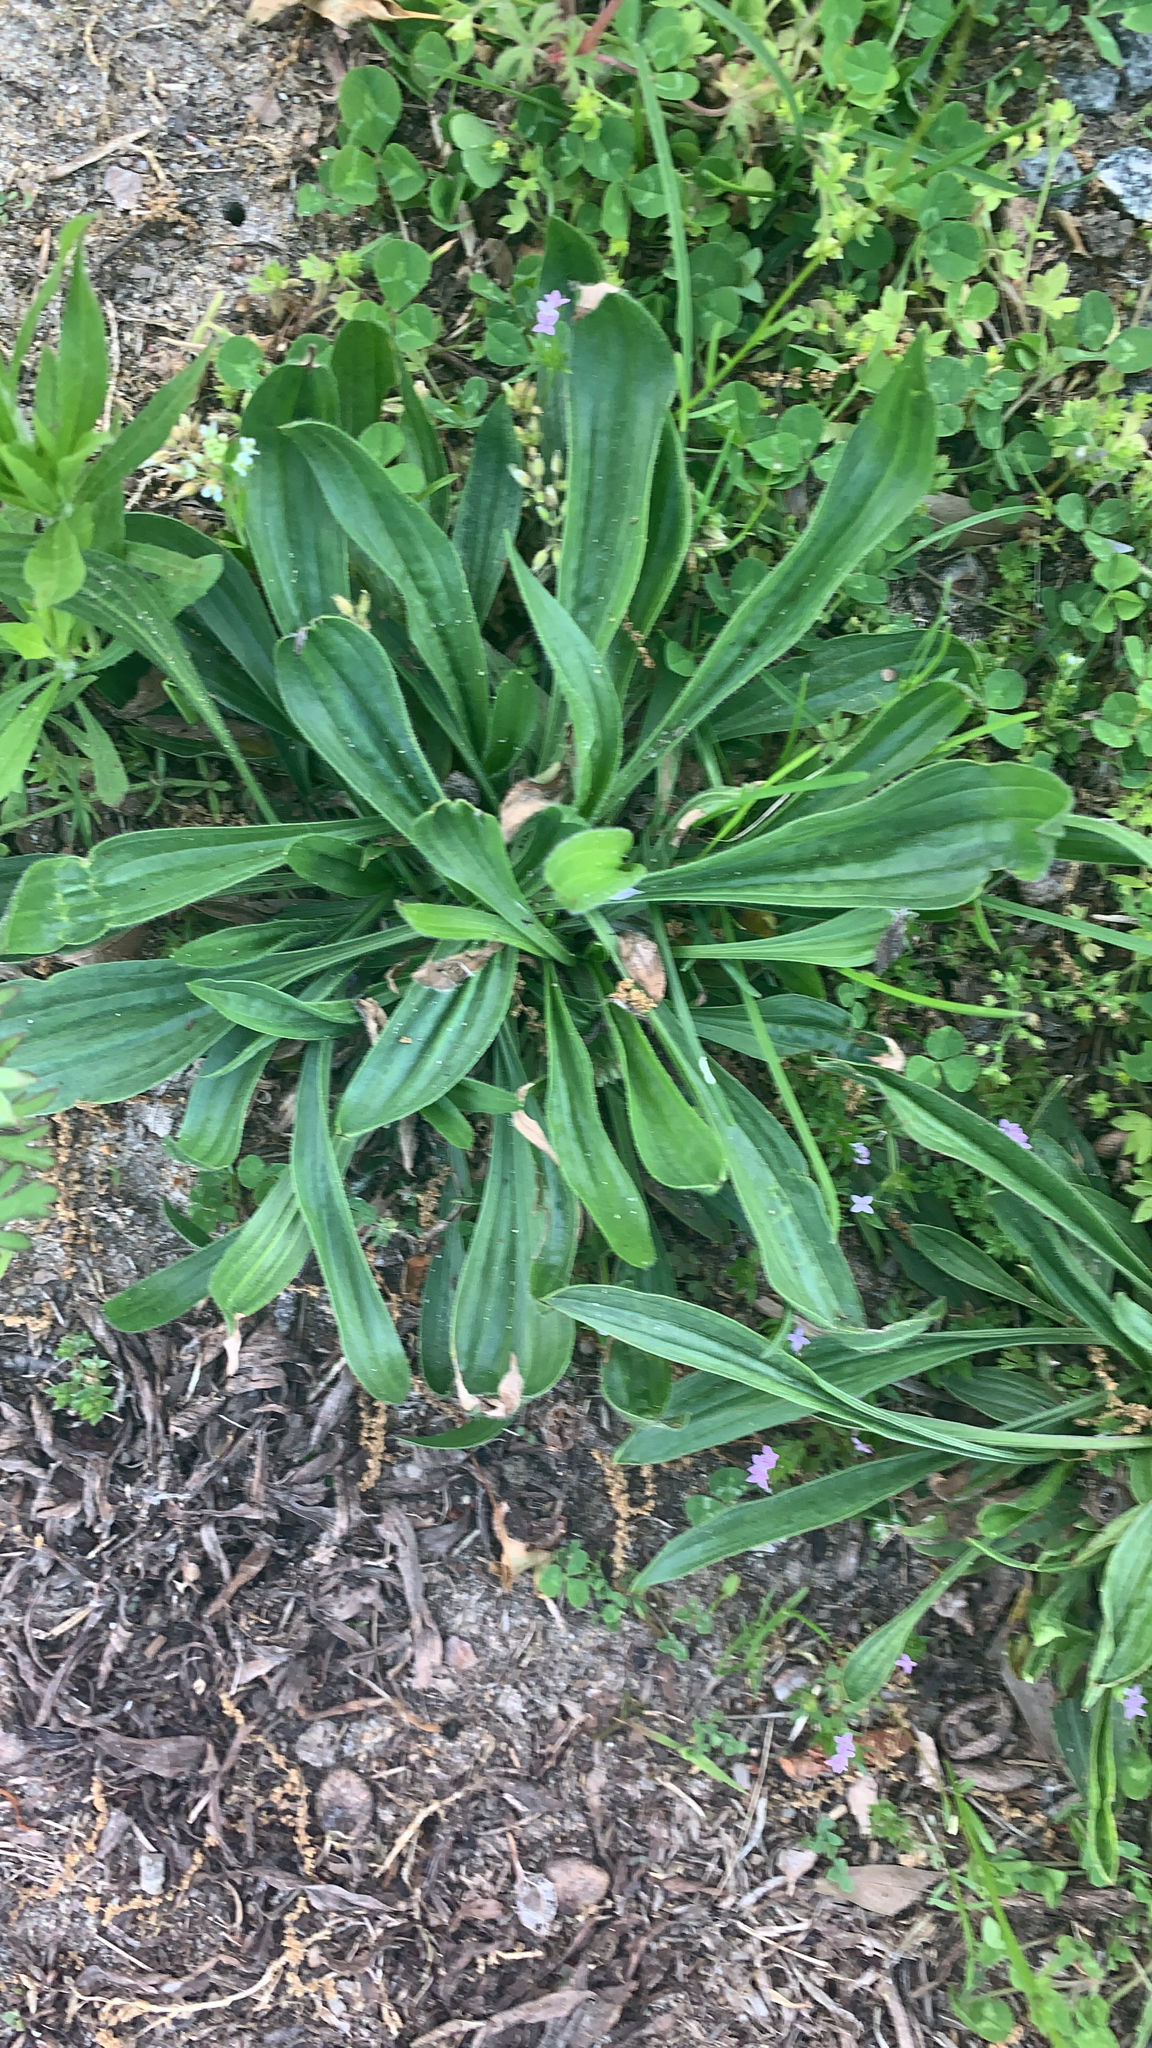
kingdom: Plantae
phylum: Tracheophyta
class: Magnoliopsida
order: Lamiales
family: Plantaginaceae
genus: Plantago
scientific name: Plantago lanceolata
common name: Ribwort plantain
